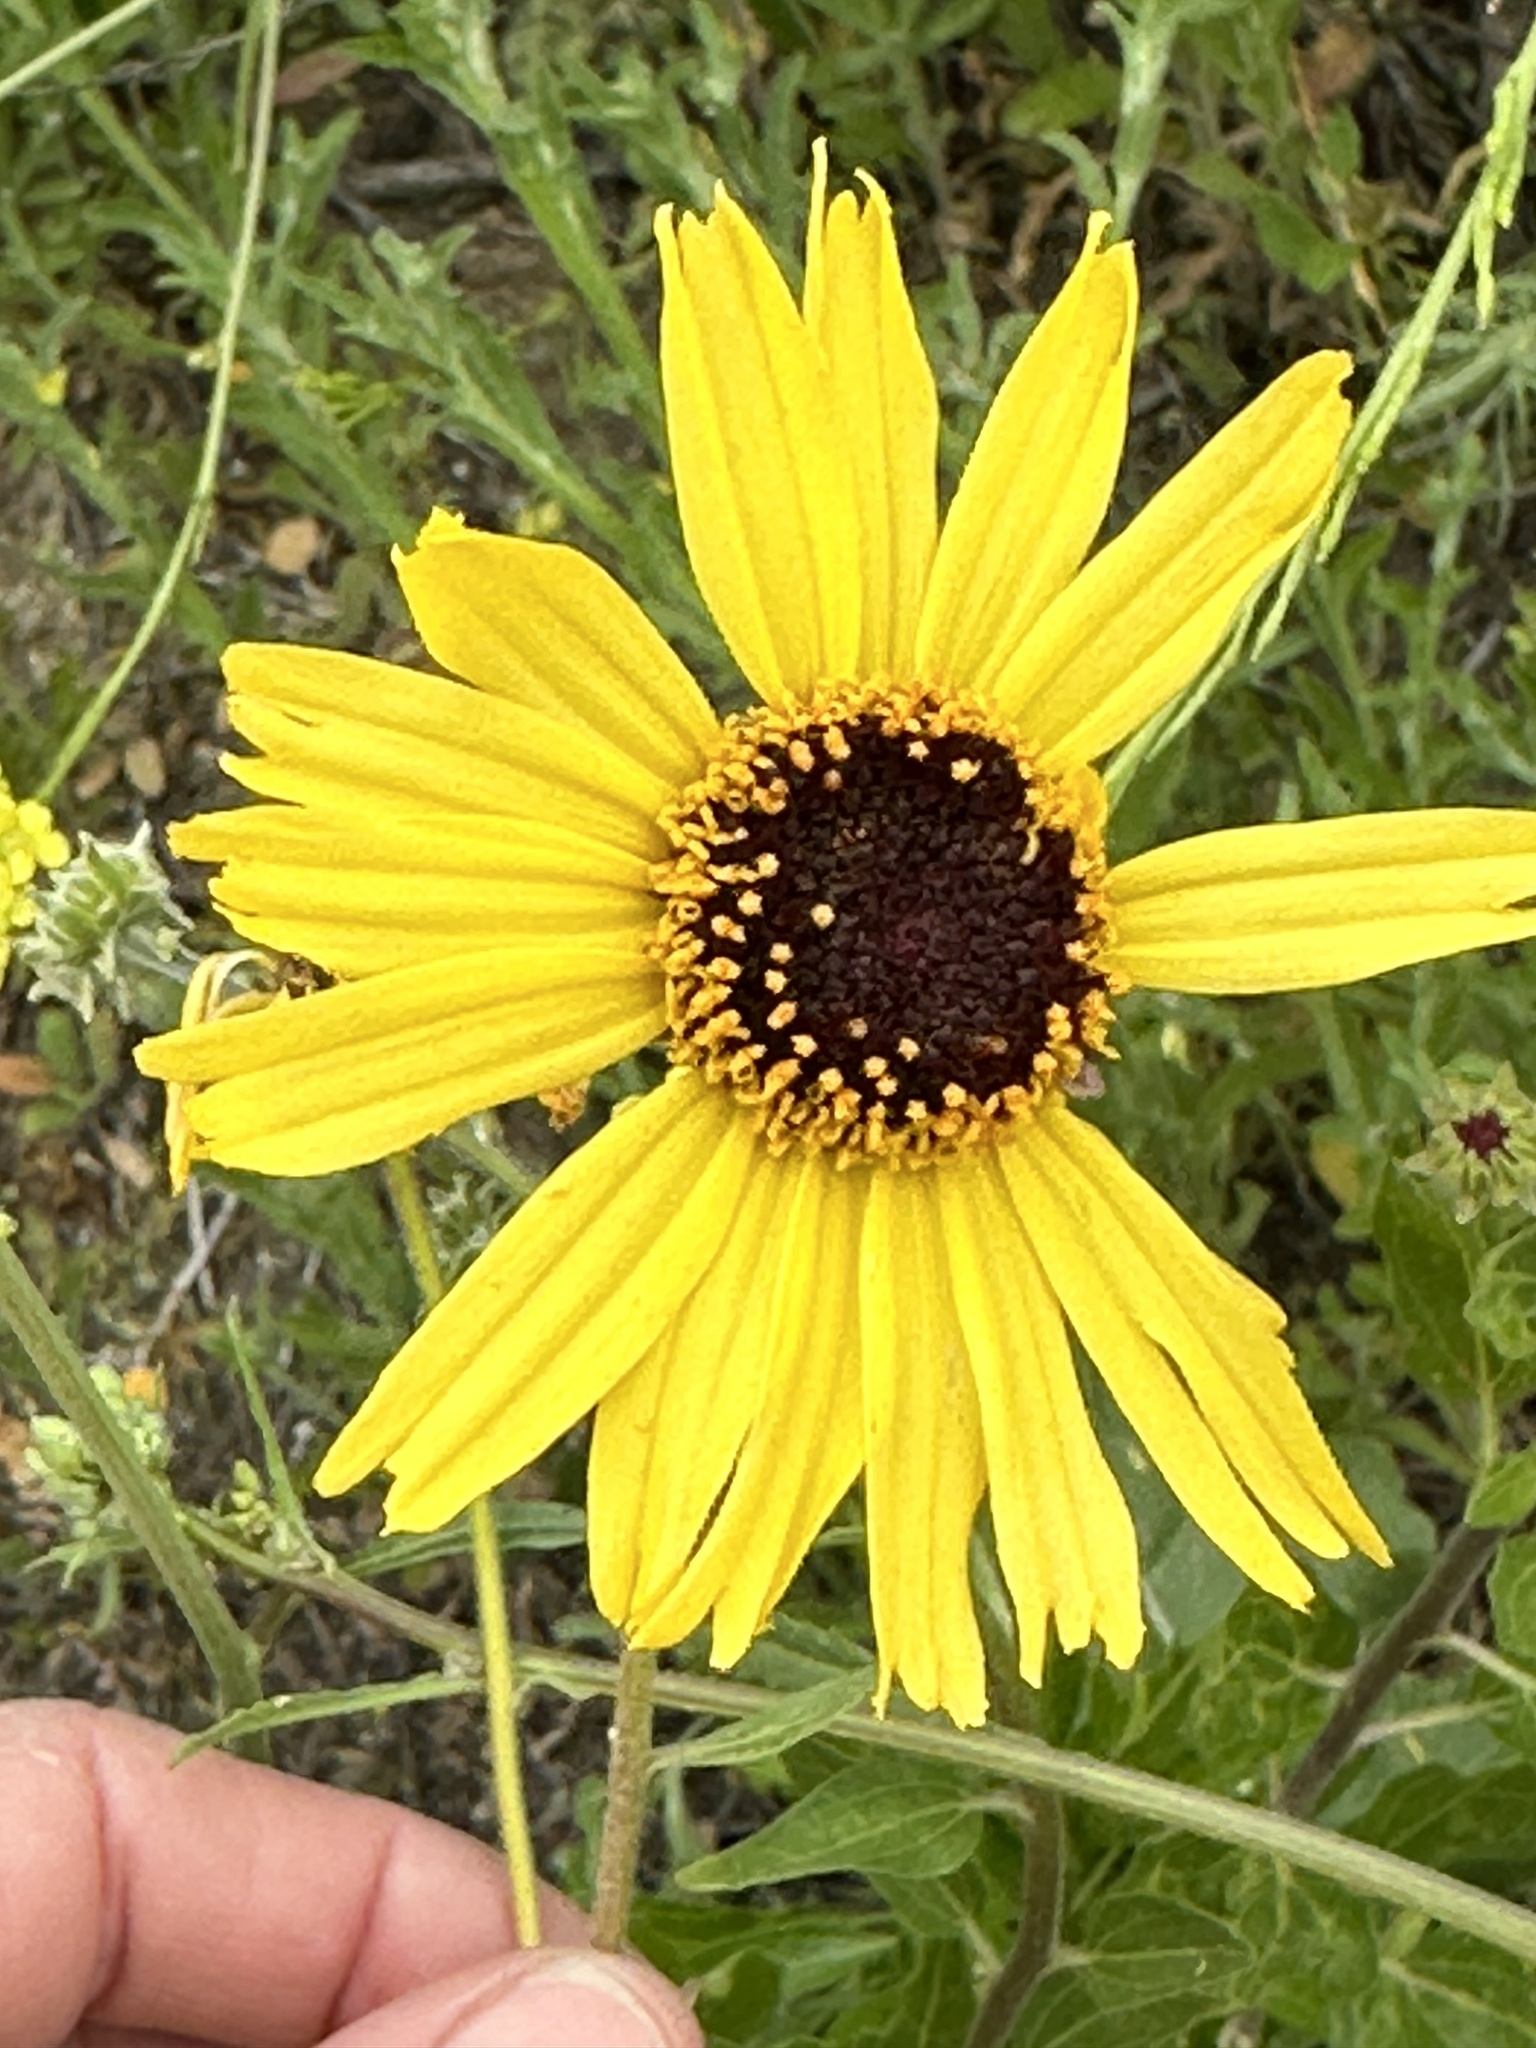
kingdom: Plantae
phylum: Tracheophyta
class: Magnoliopsida
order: Asterales
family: Asteraceae
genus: Encelia
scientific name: Encelia californica
